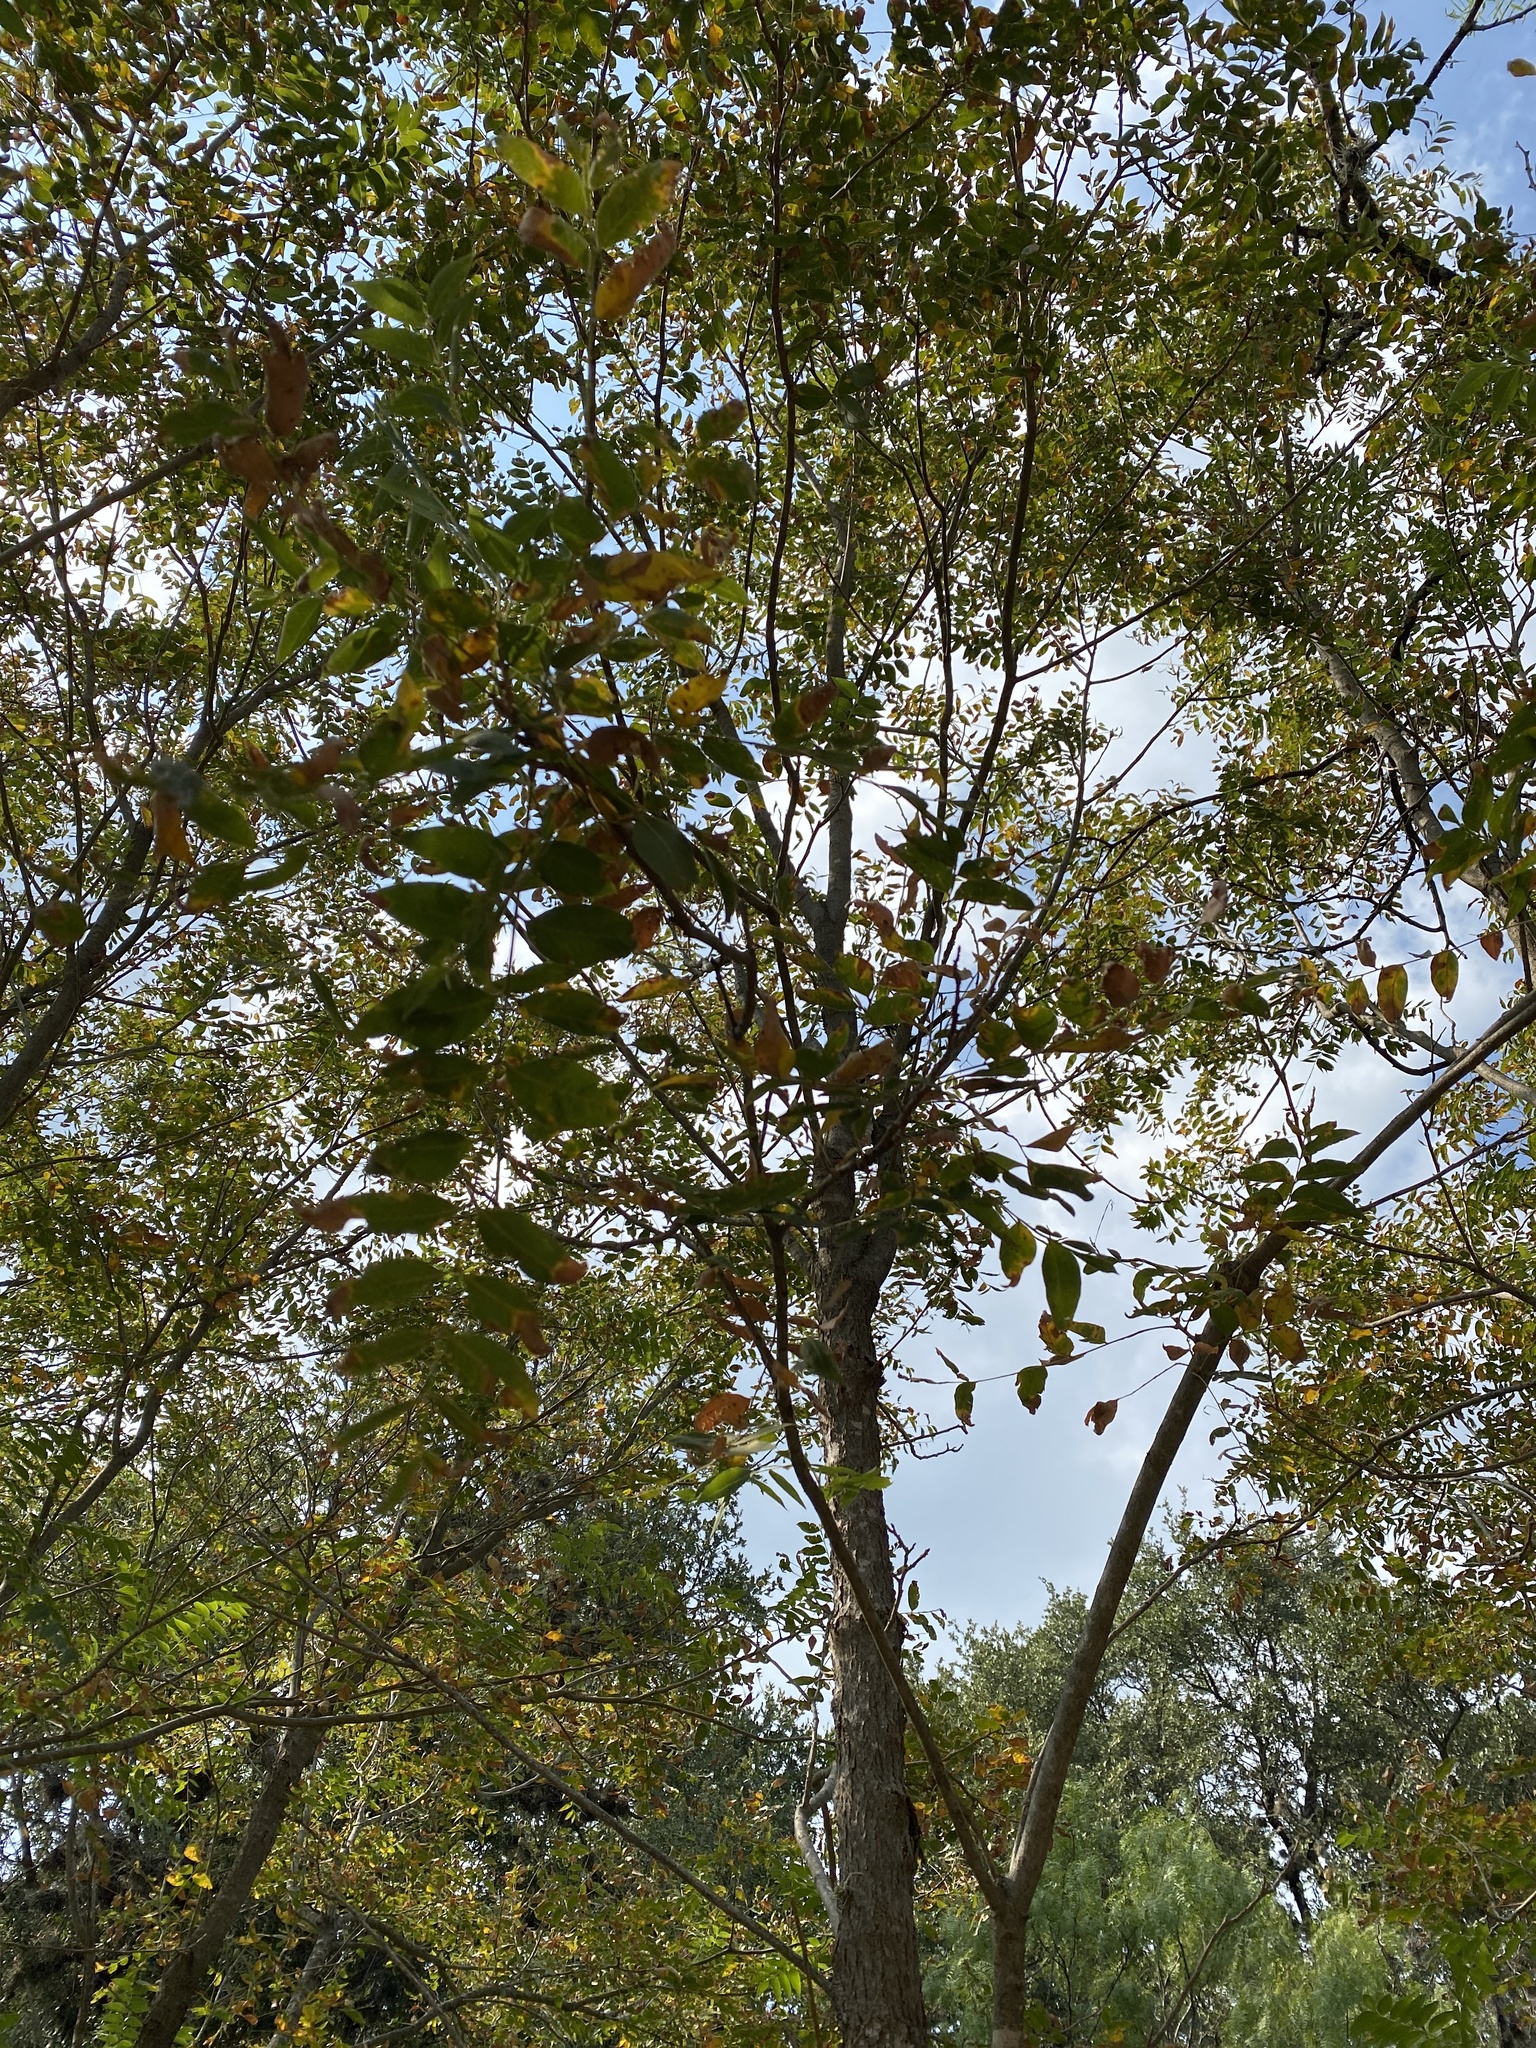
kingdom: Plantae
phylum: Tracheophyta
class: Magnoliopsida
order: Sapindales
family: Sapindaceae
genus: Sapindus
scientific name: Sapindus drummondii
